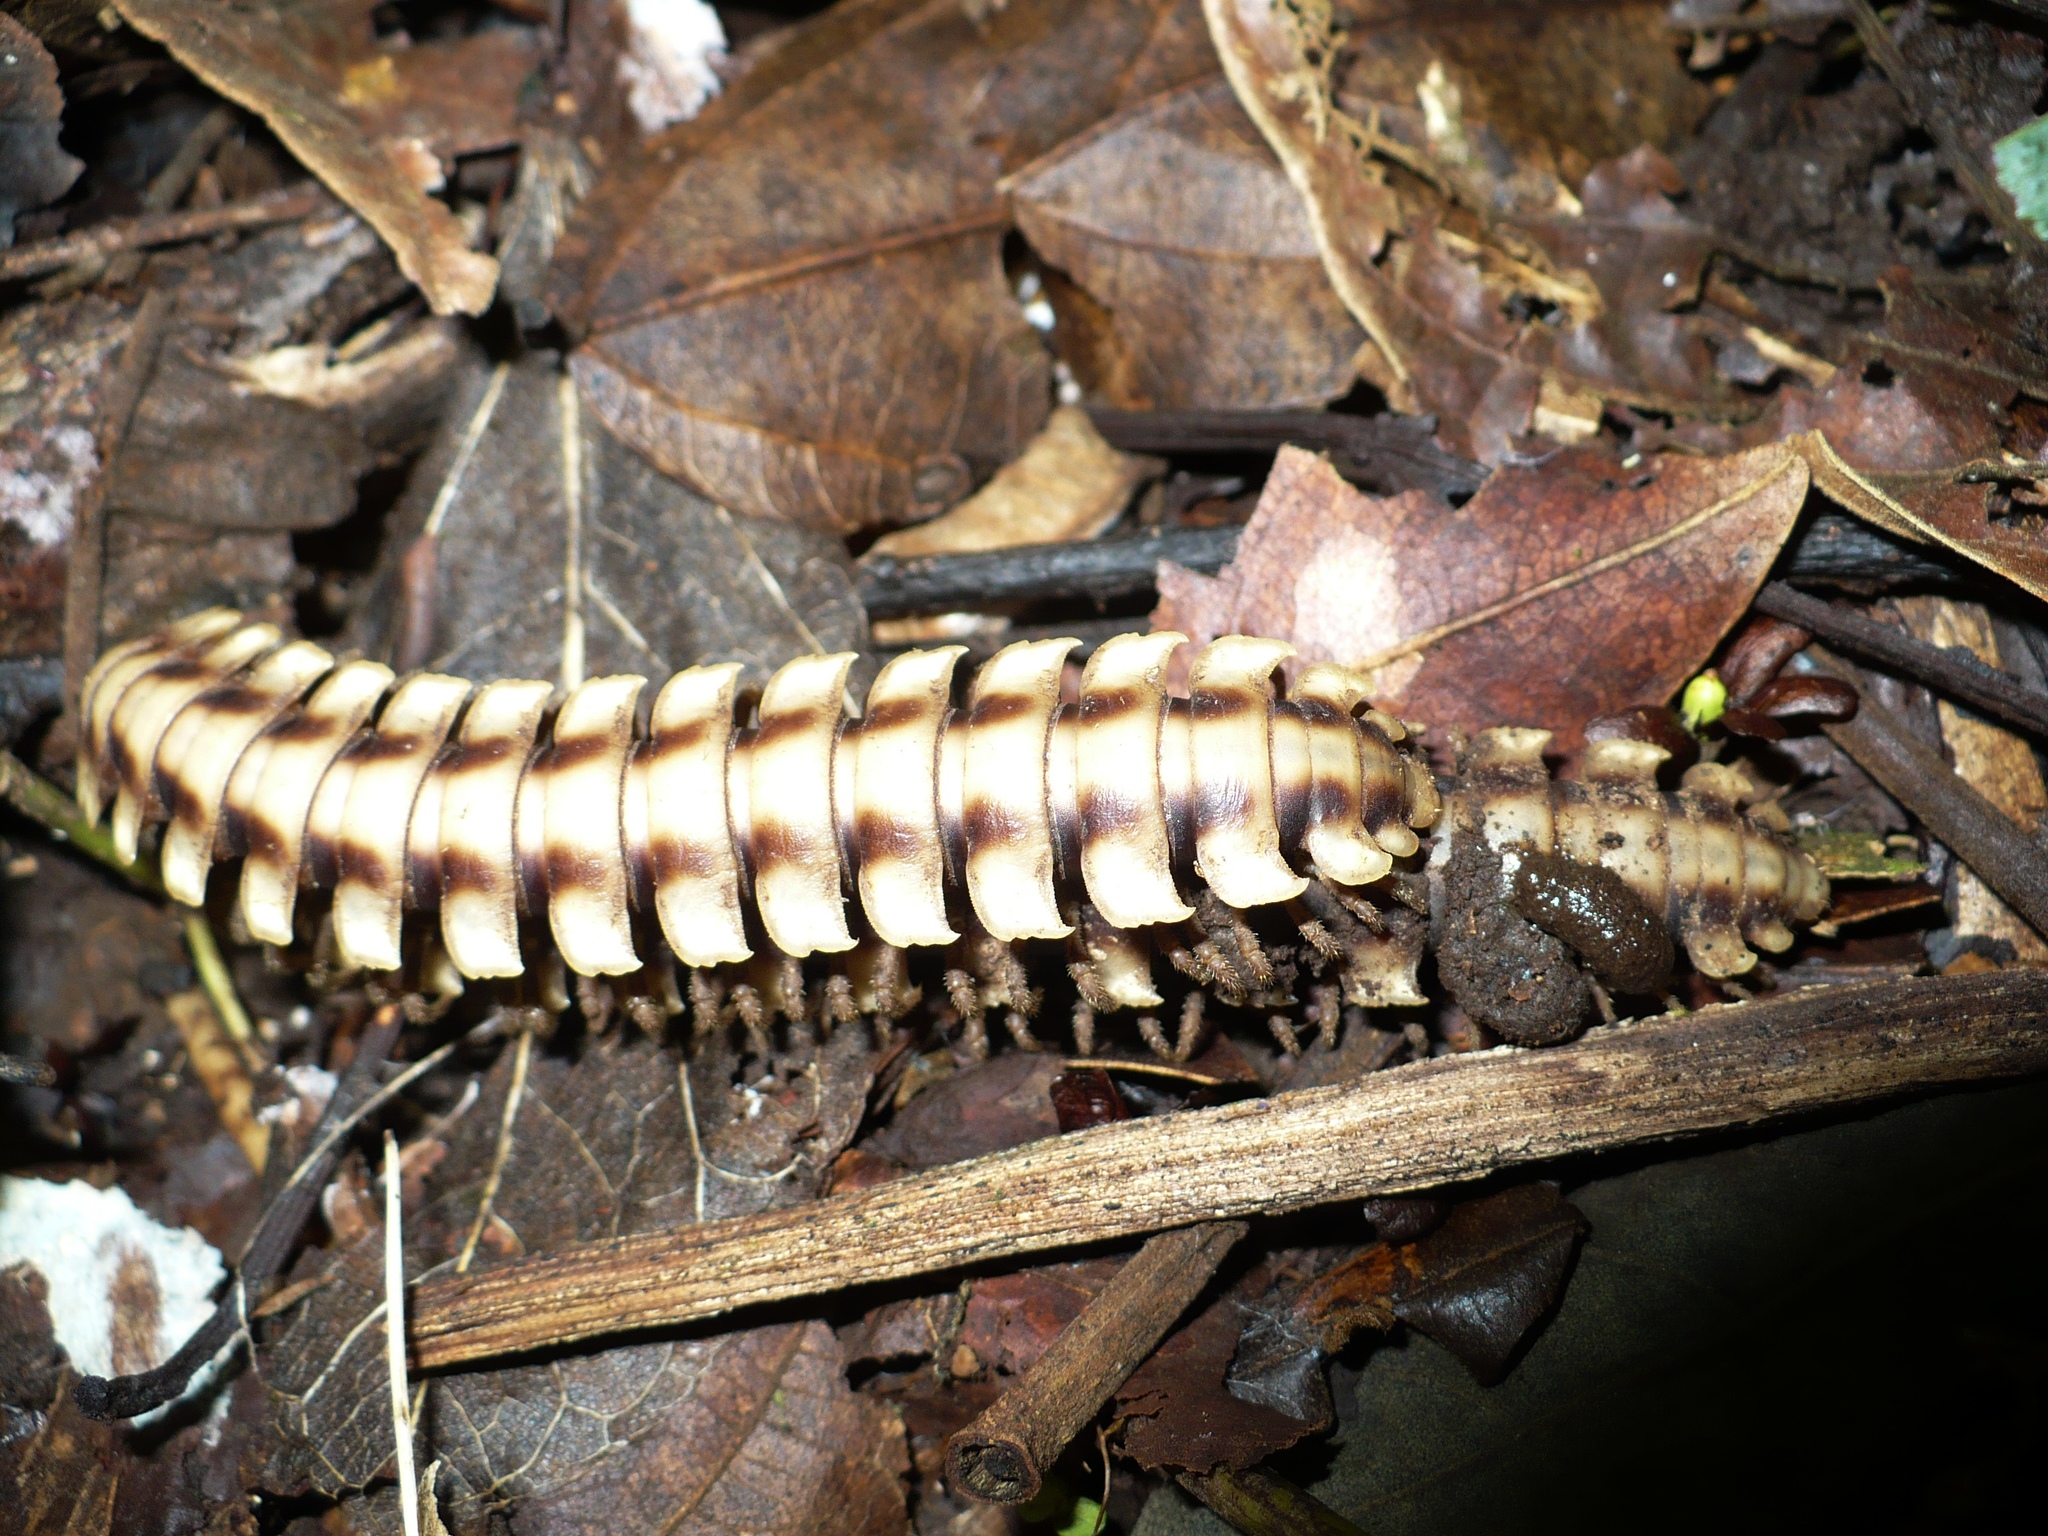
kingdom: Animalia
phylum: Arthropoda
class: Diplopoda
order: Polydesmida
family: Platyrhacidae
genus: Nyssodesmus
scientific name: Nyssodesmus python
